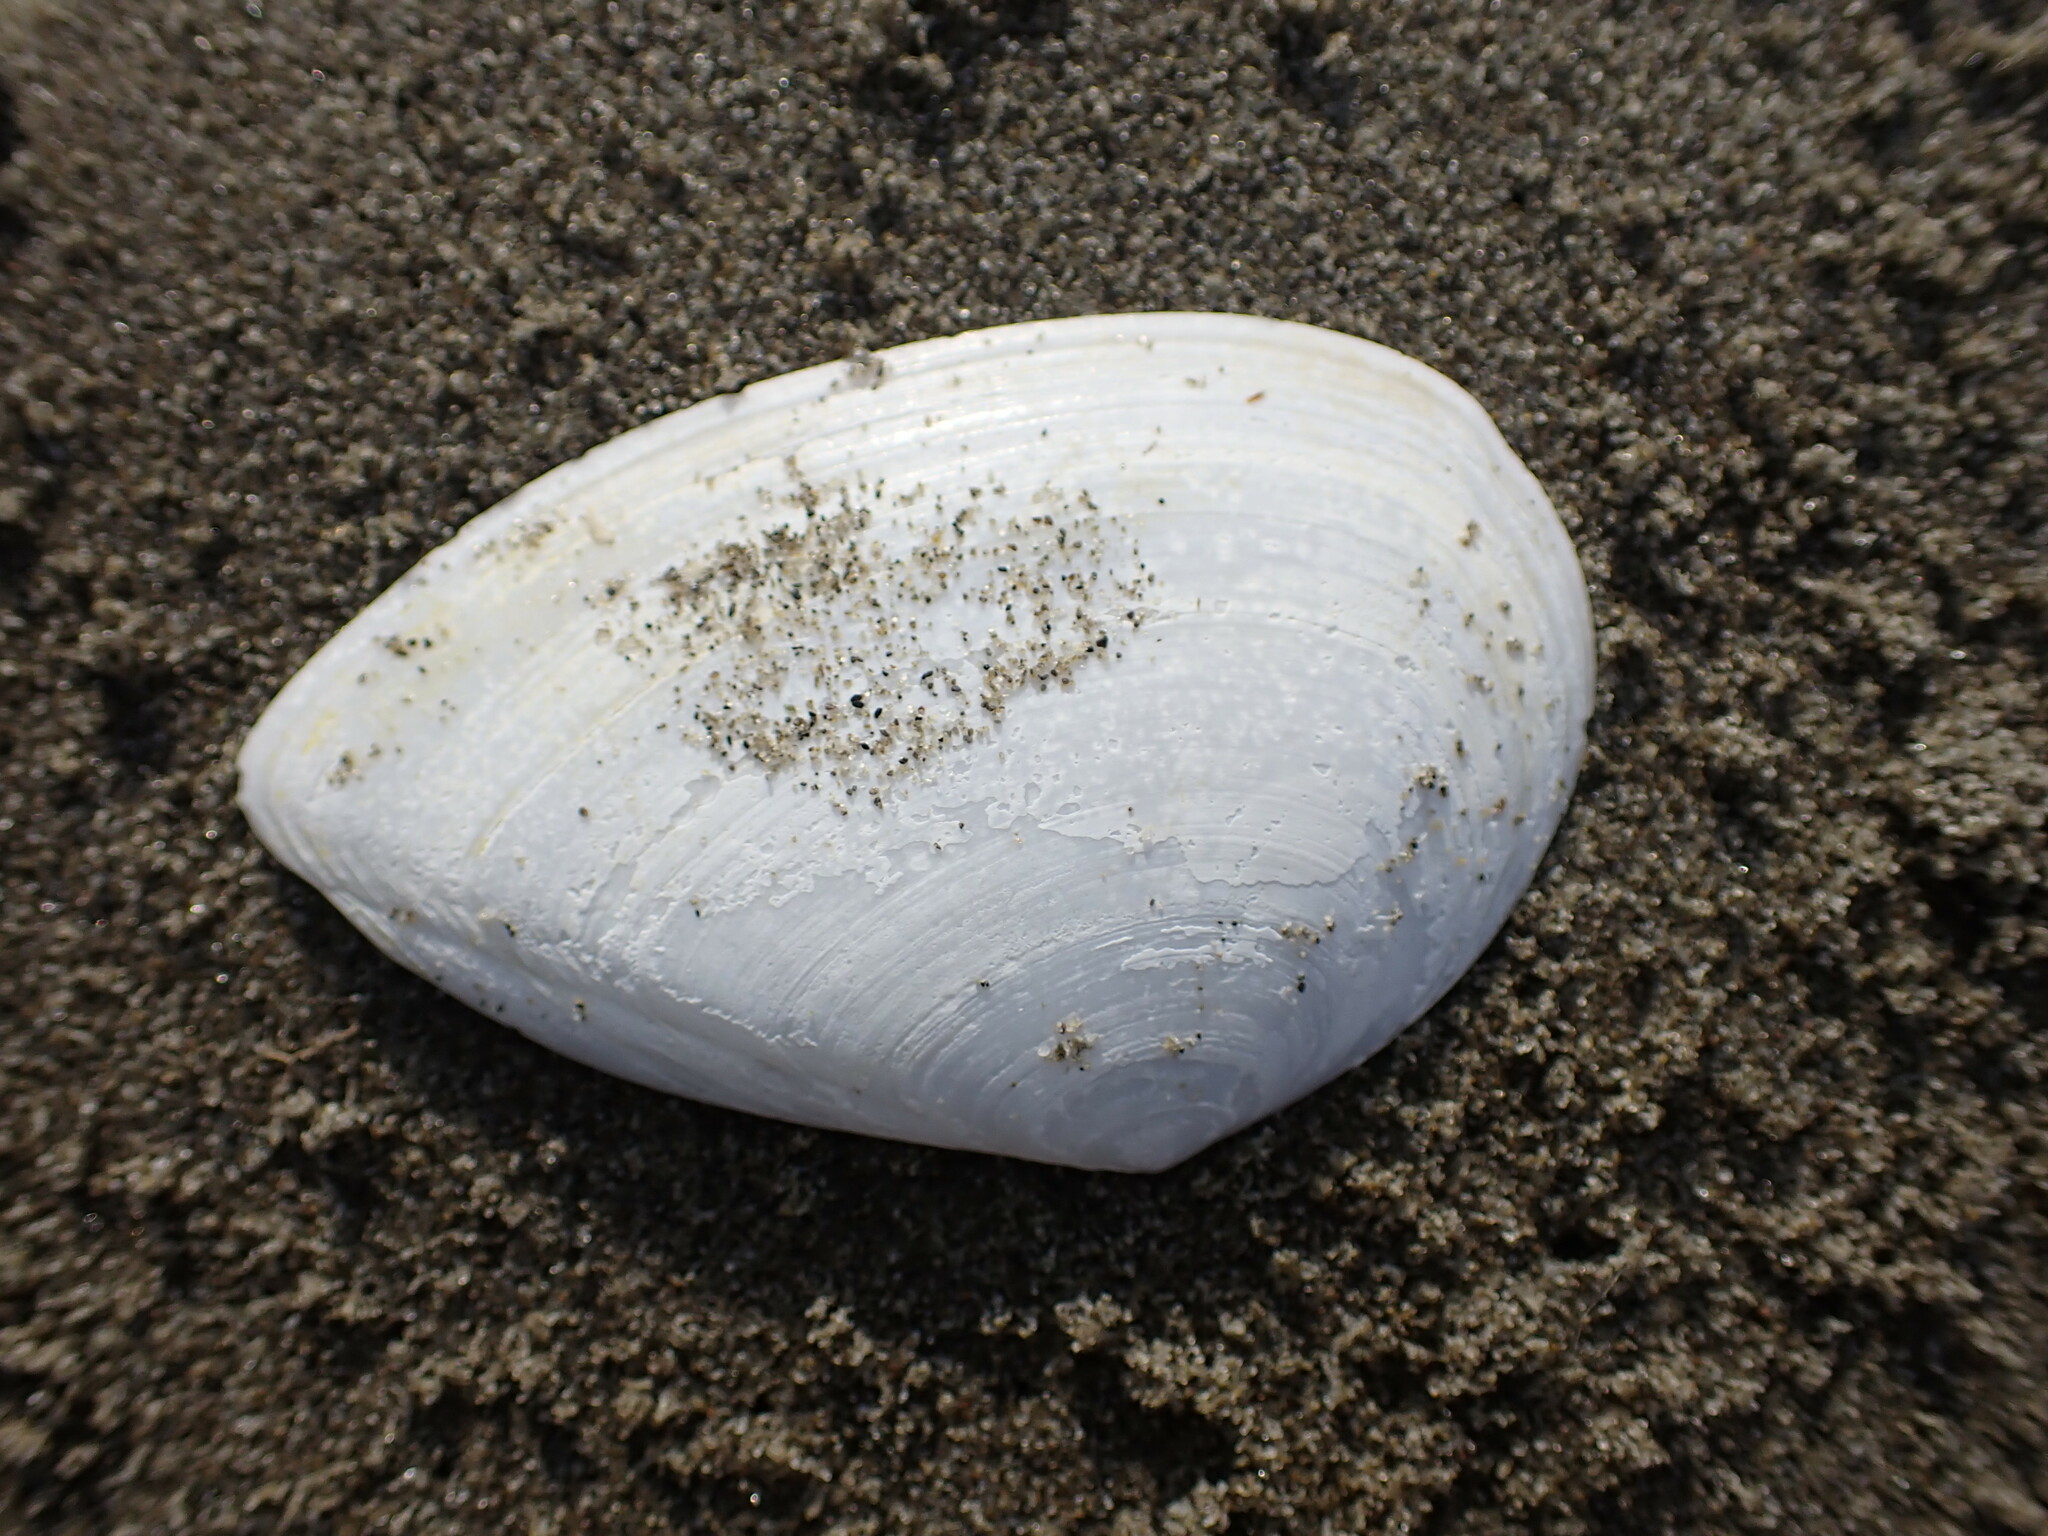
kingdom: Animalia
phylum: Mollusca
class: Bivalvia
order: Cardiida
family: Tellinidae
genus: Bartschicoma
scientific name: Bartschicoma gaimardi
